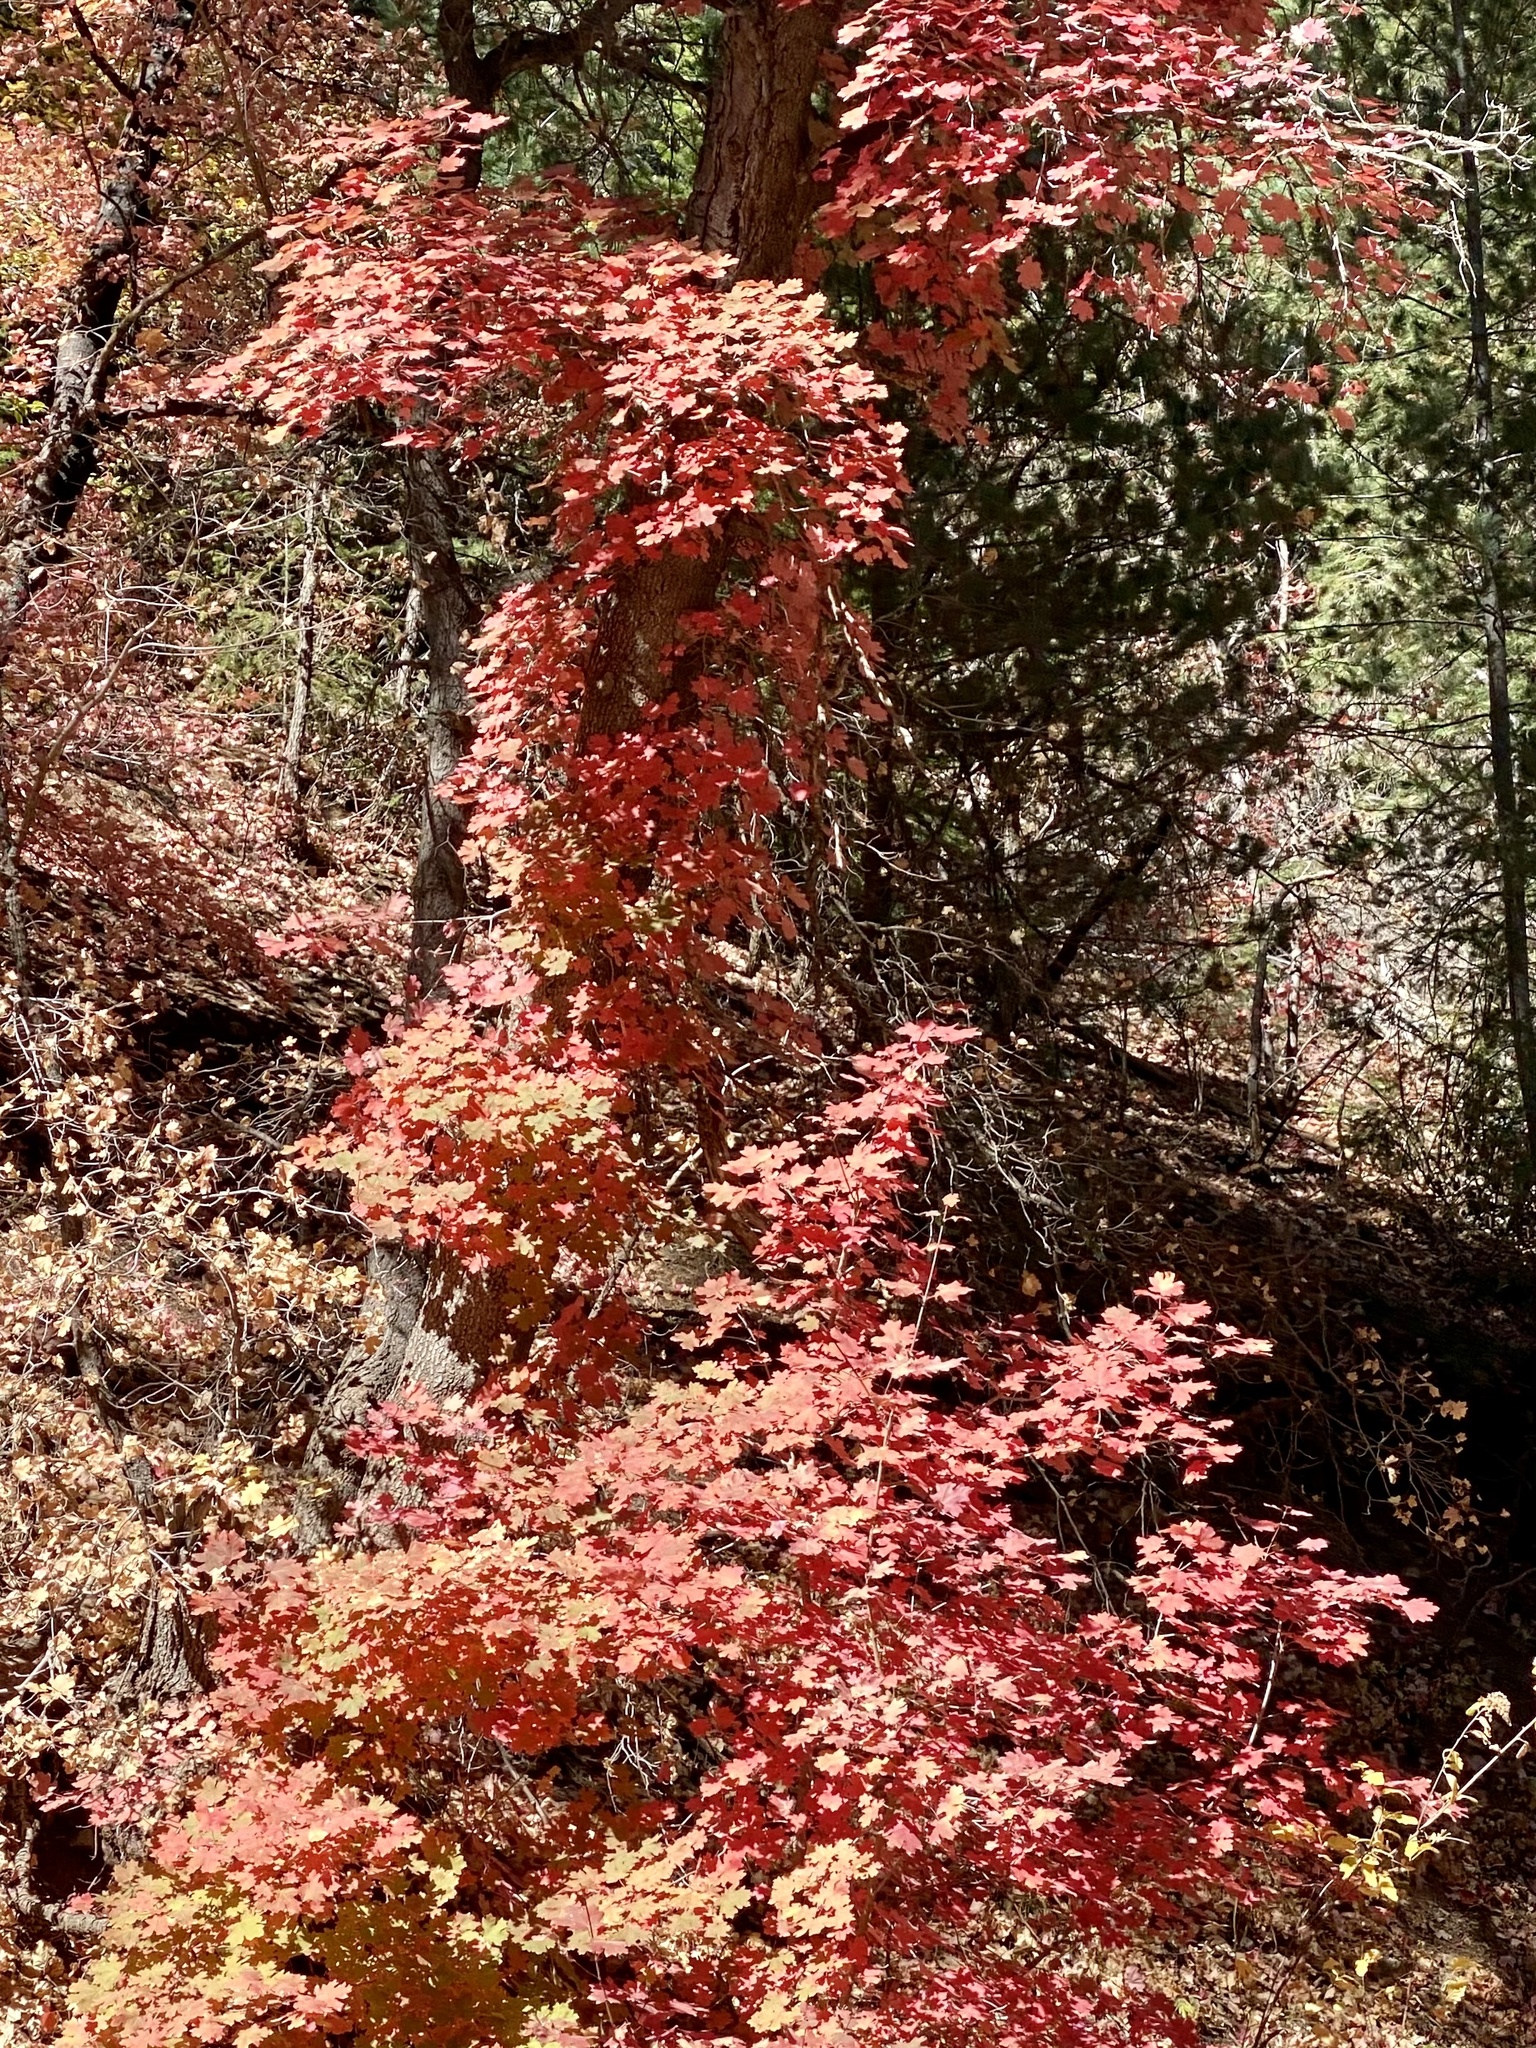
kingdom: Plantae
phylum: Tracheophyta
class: Magnoliopsida
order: Sapindales
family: Sapindaceae
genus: Acer
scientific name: Acer grandidentatum
